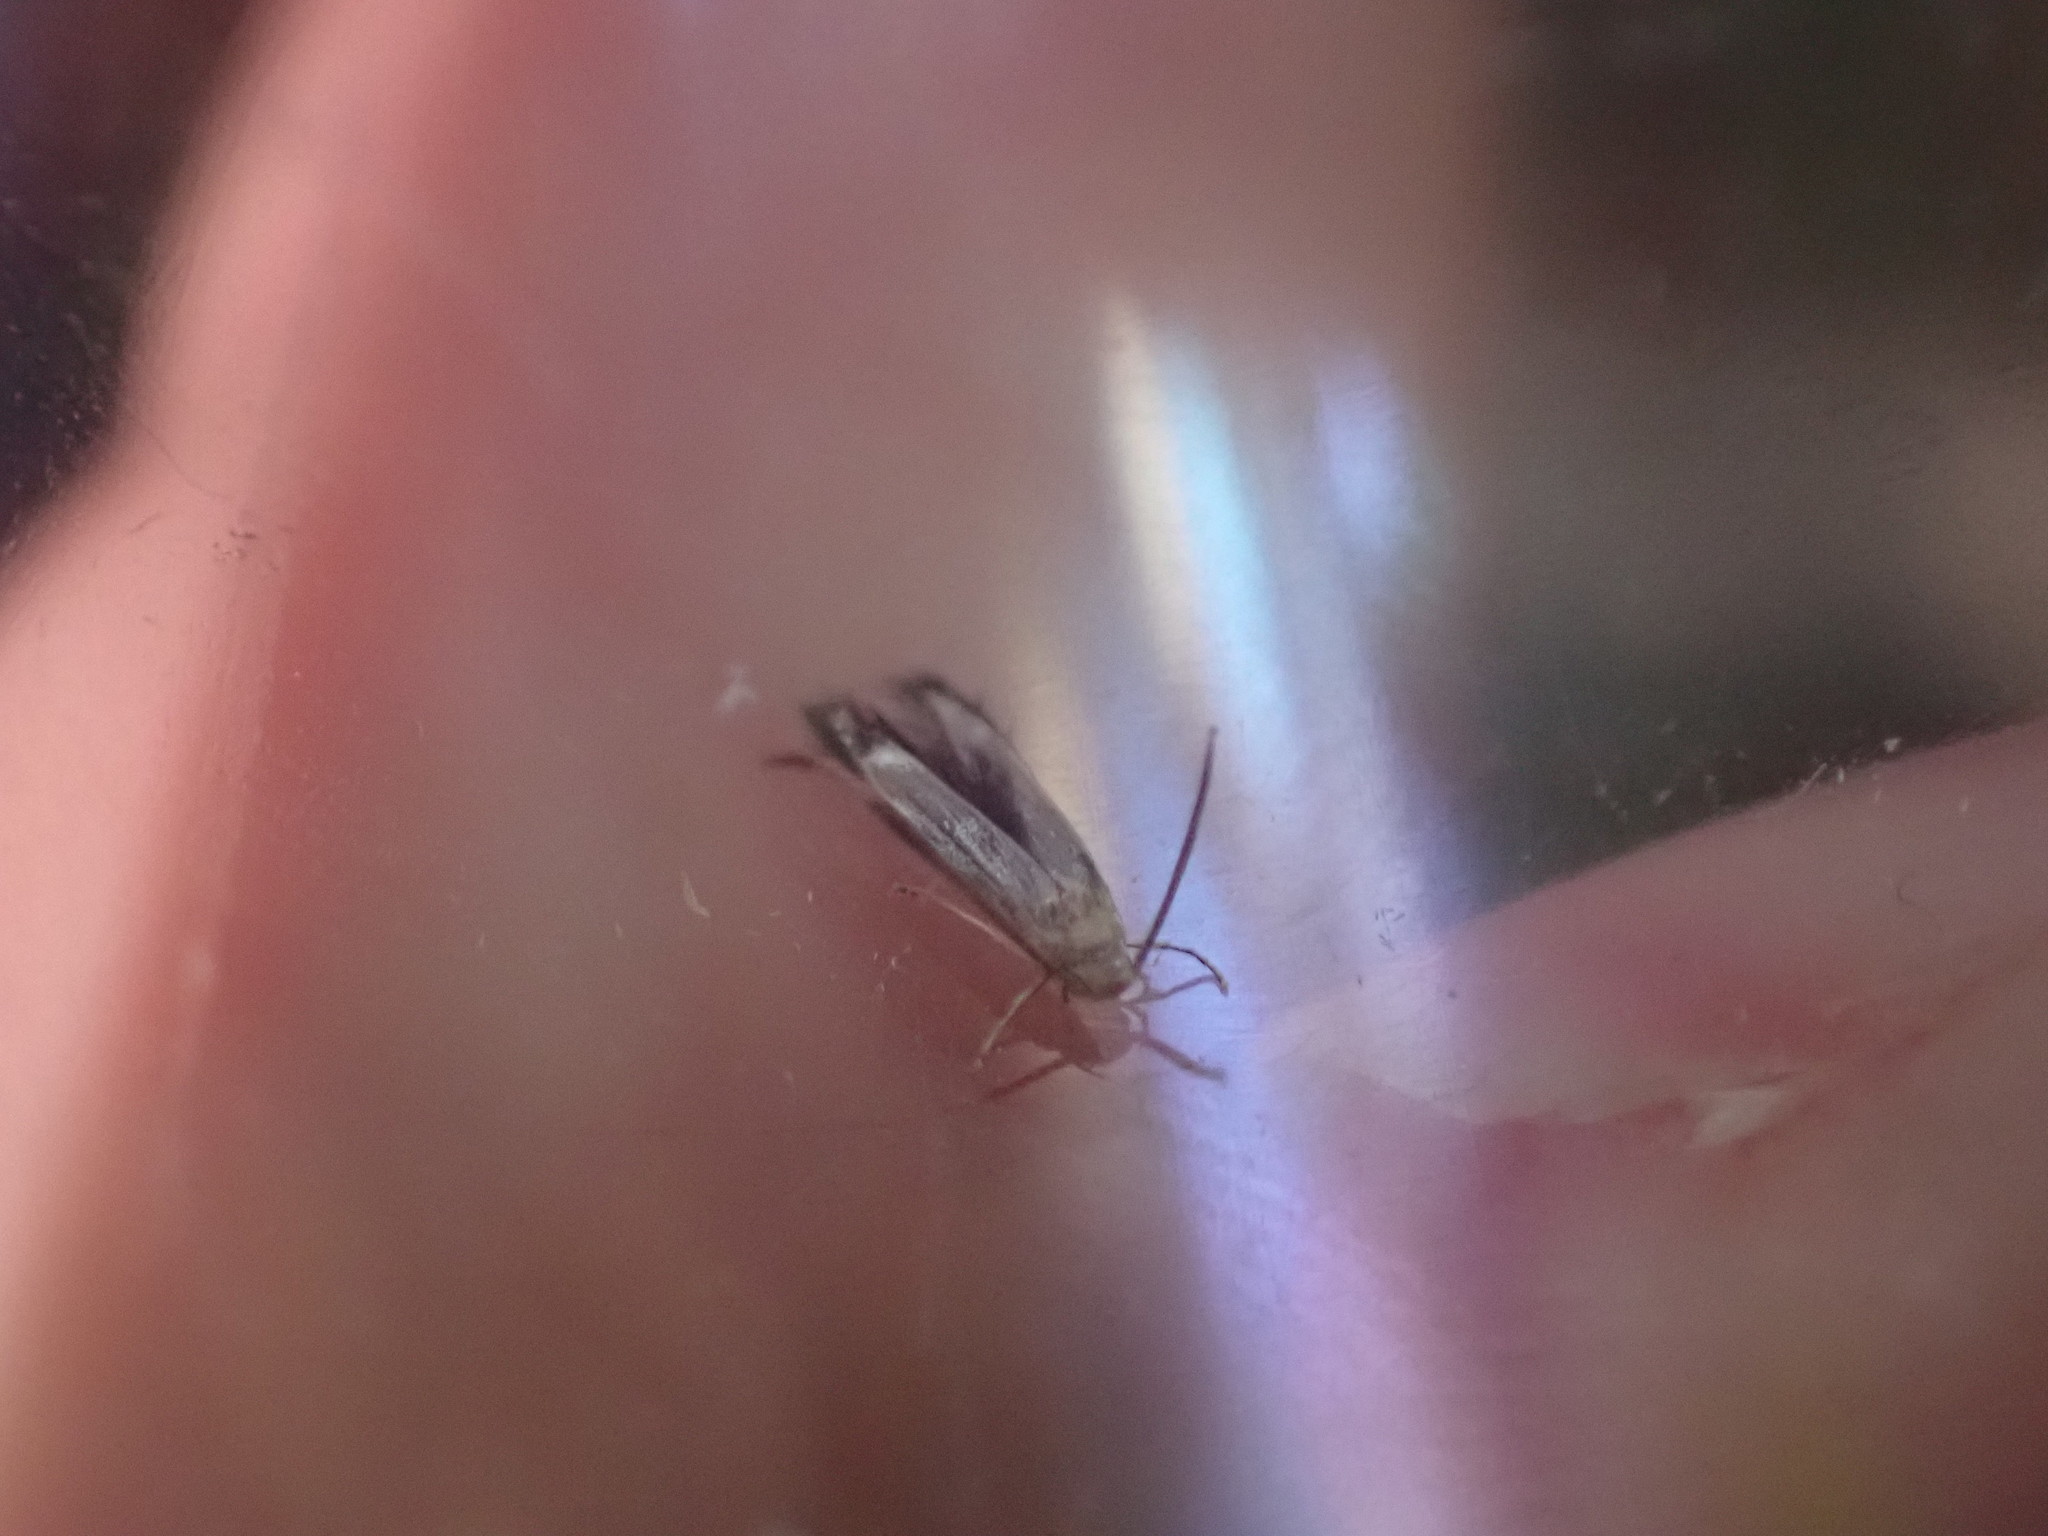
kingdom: Animalia
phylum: Arthropoda
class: Insecta
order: Lepidoptera
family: Stathmopodidae
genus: Thylacosceles
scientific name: Thylacosceles radians
